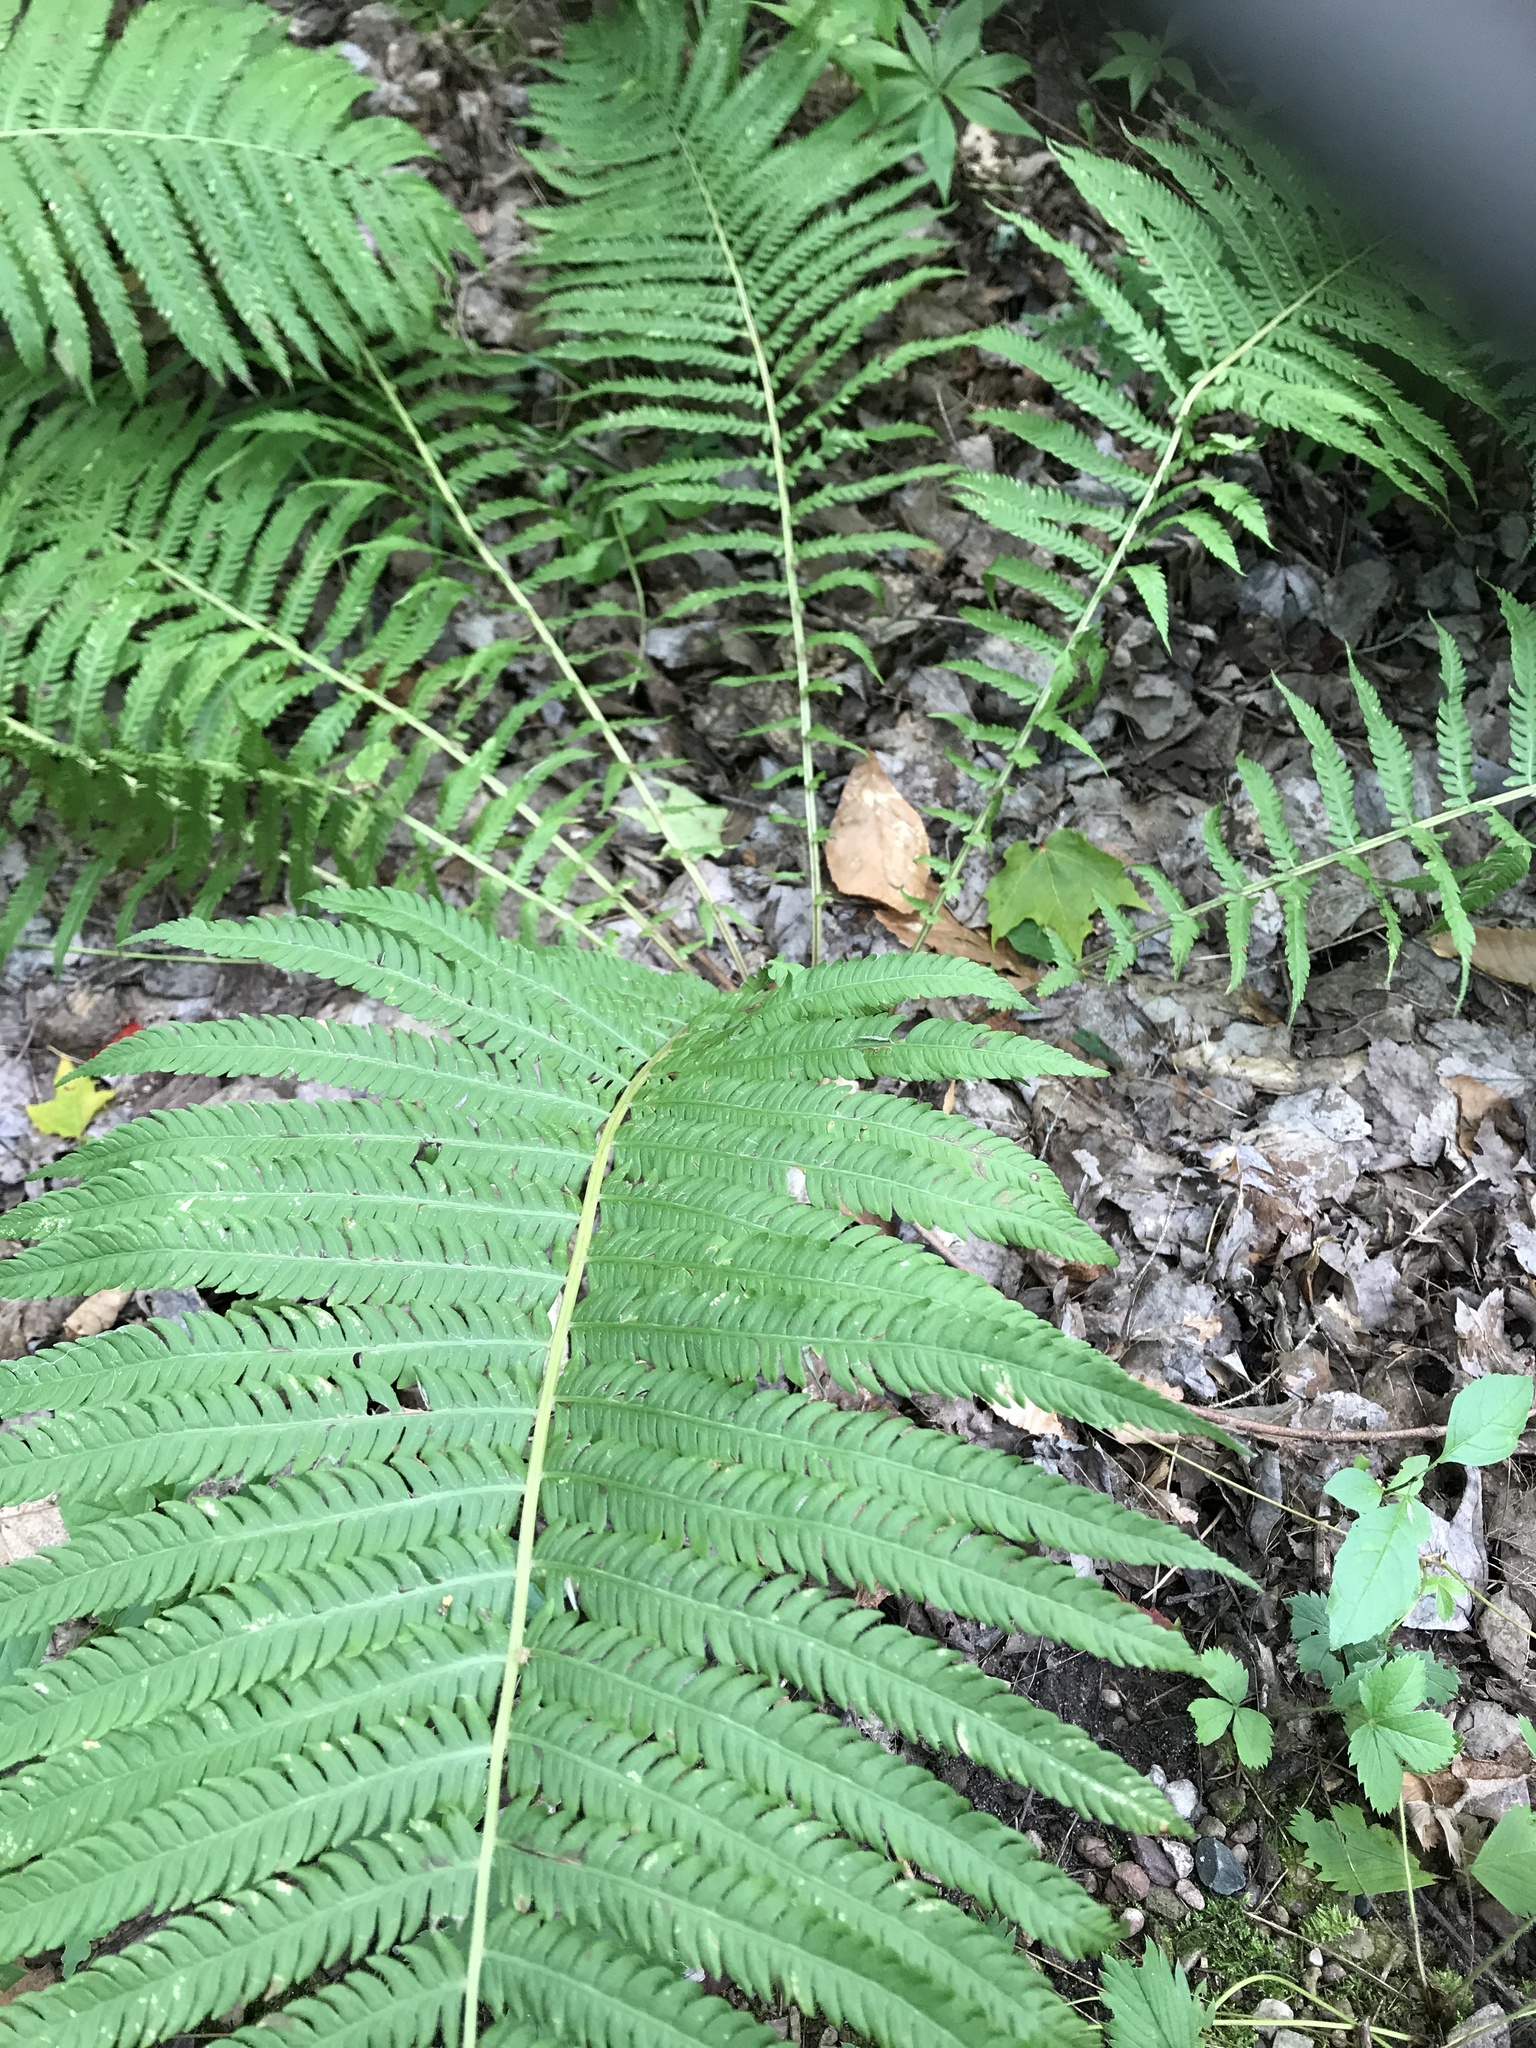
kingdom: Plantae
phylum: Tracheophyta
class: Polypodiopsida
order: Polypodiales
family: Onocleaceae
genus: Matteuccia
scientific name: Matteuccia struthiopteris
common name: Ostrich fern
